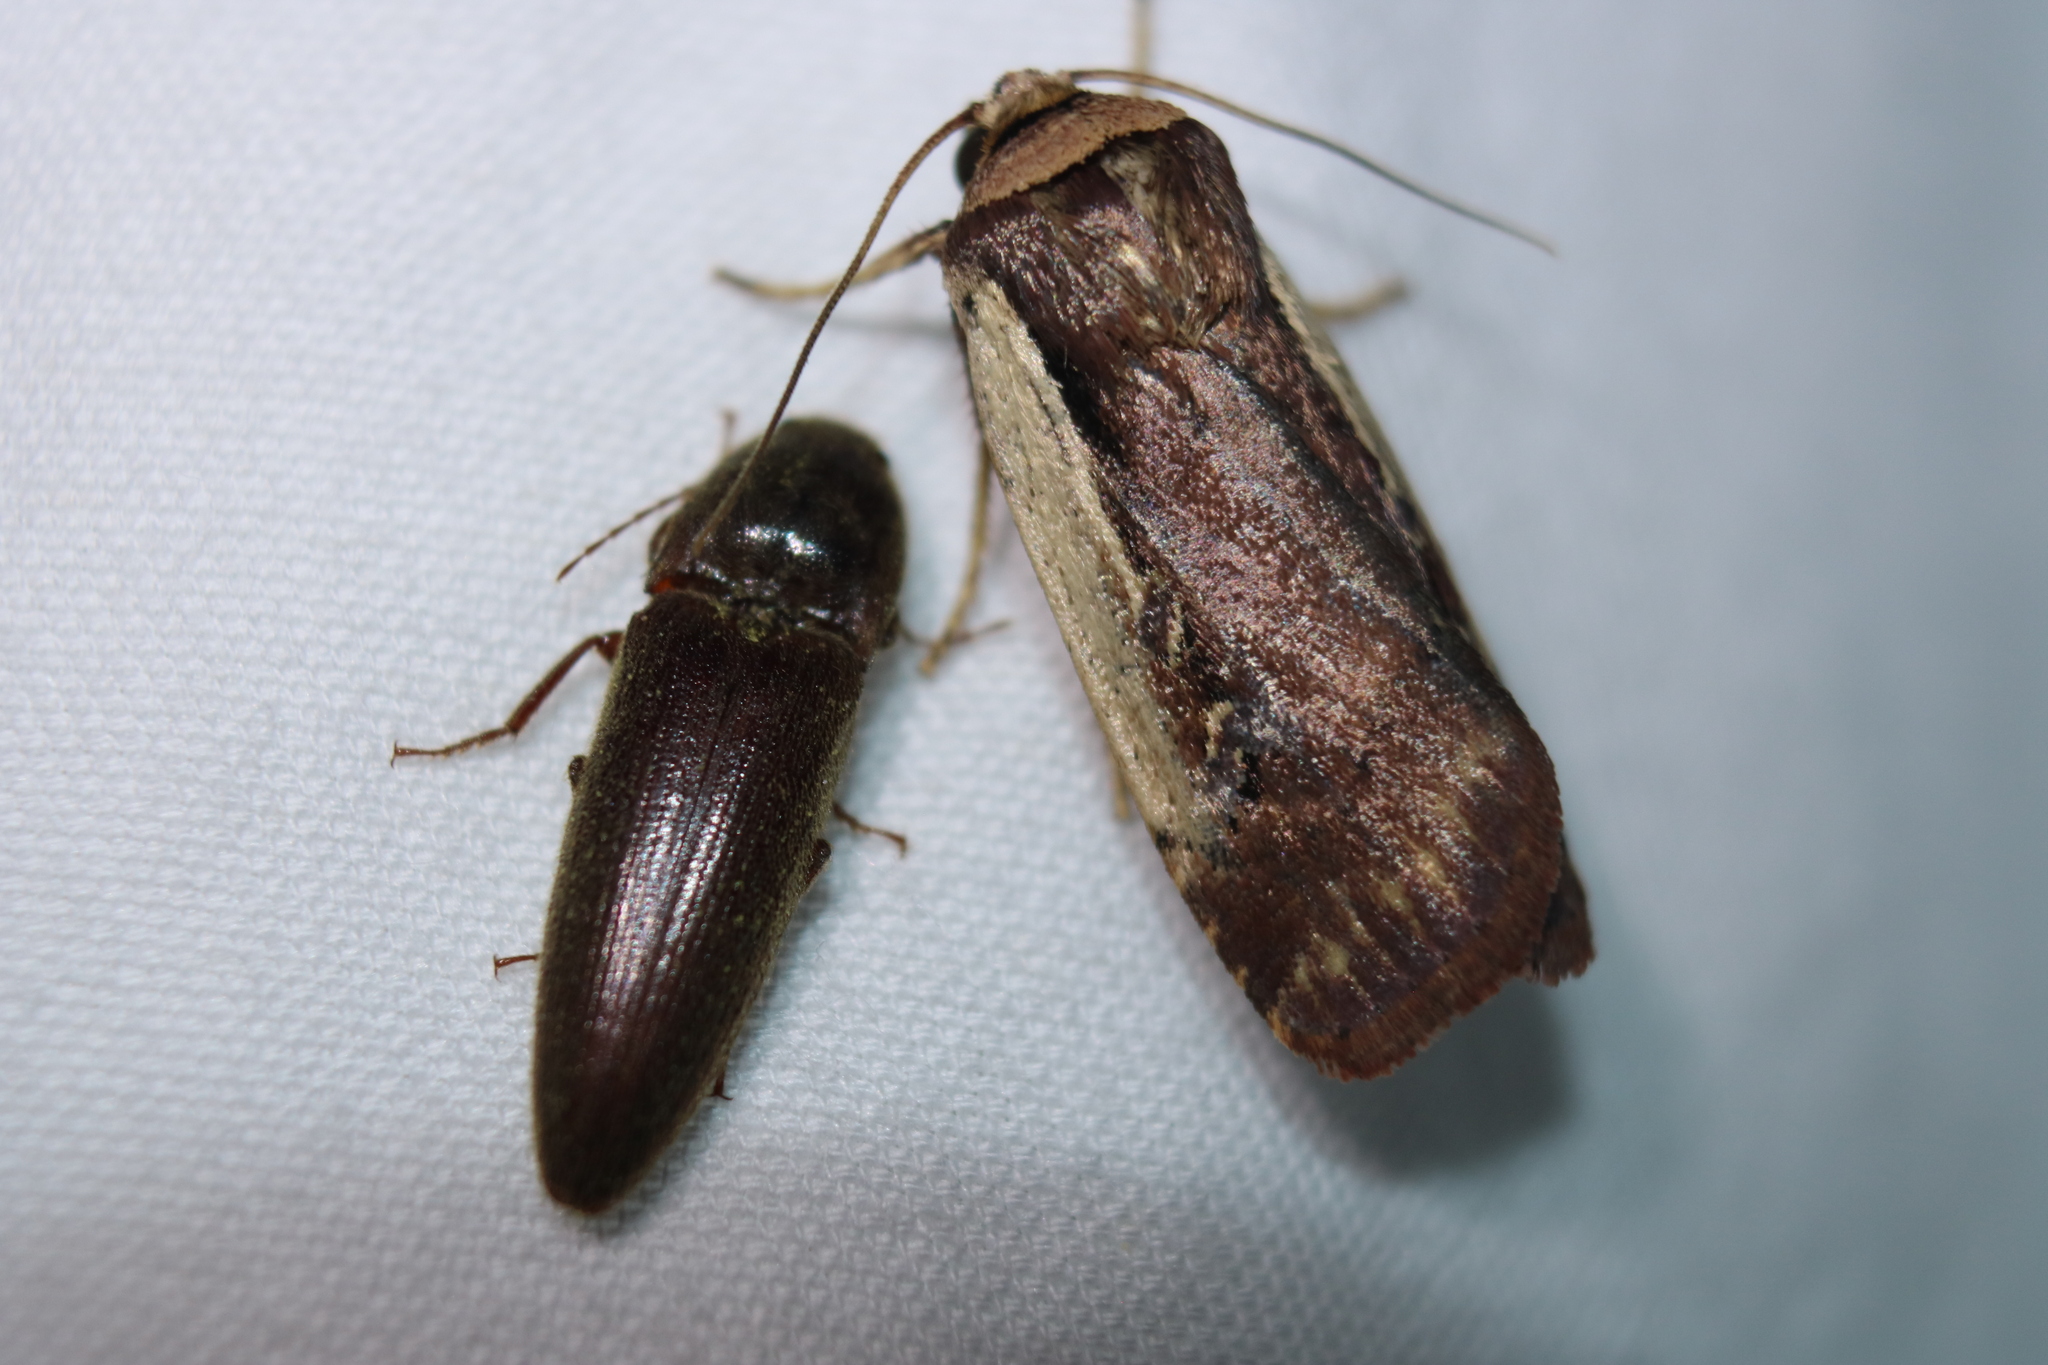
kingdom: Animalia
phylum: Arthropoda
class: Insecta
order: Lepidoptera
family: Noctuidae
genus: Ochropleura
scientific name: Ochropleura implecta
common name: Flame-shouldered dart
